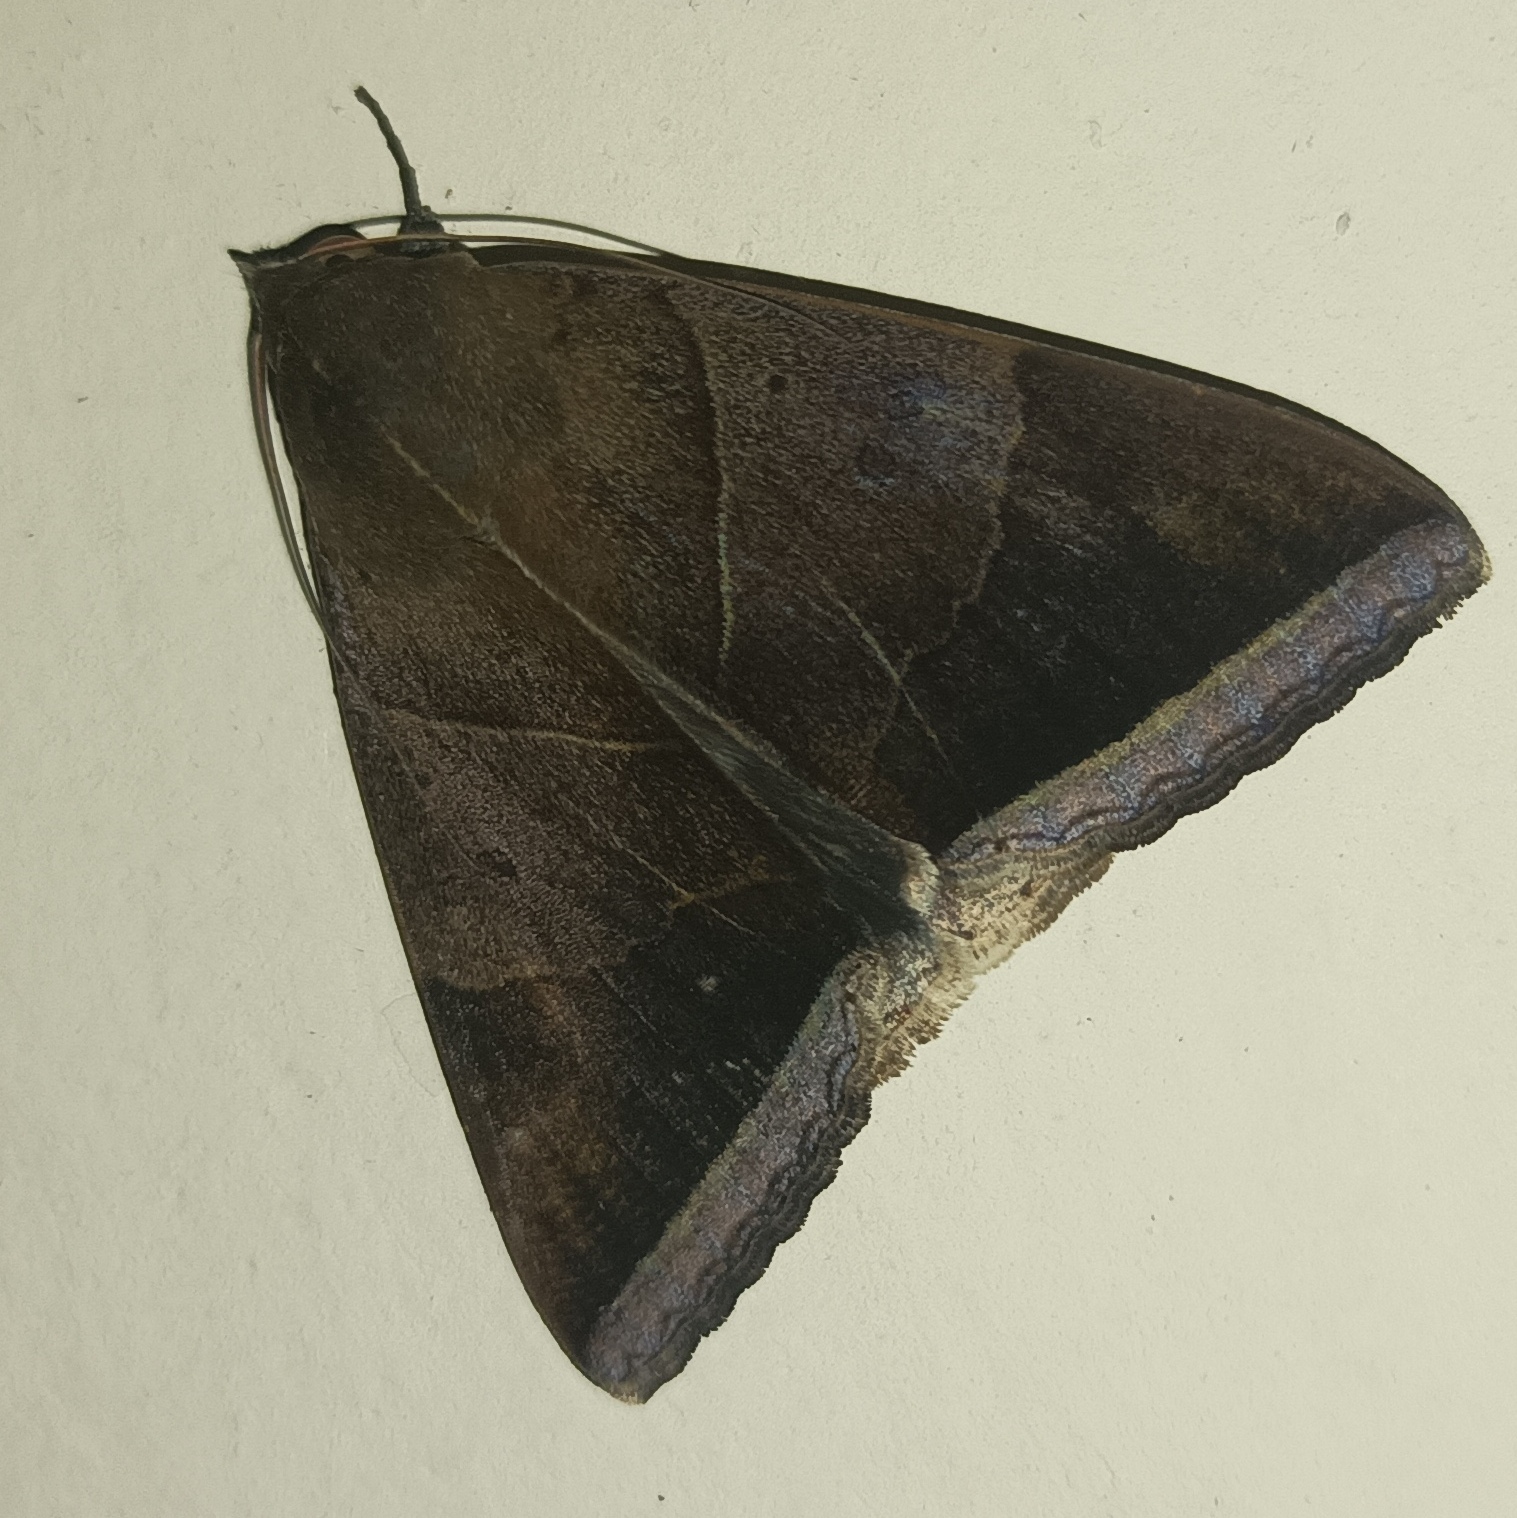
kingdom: Animalia
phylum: Arthropoda
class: Insecta
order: Lepidoptera
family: Erebidae
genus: Artena
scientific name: Artena dotata
